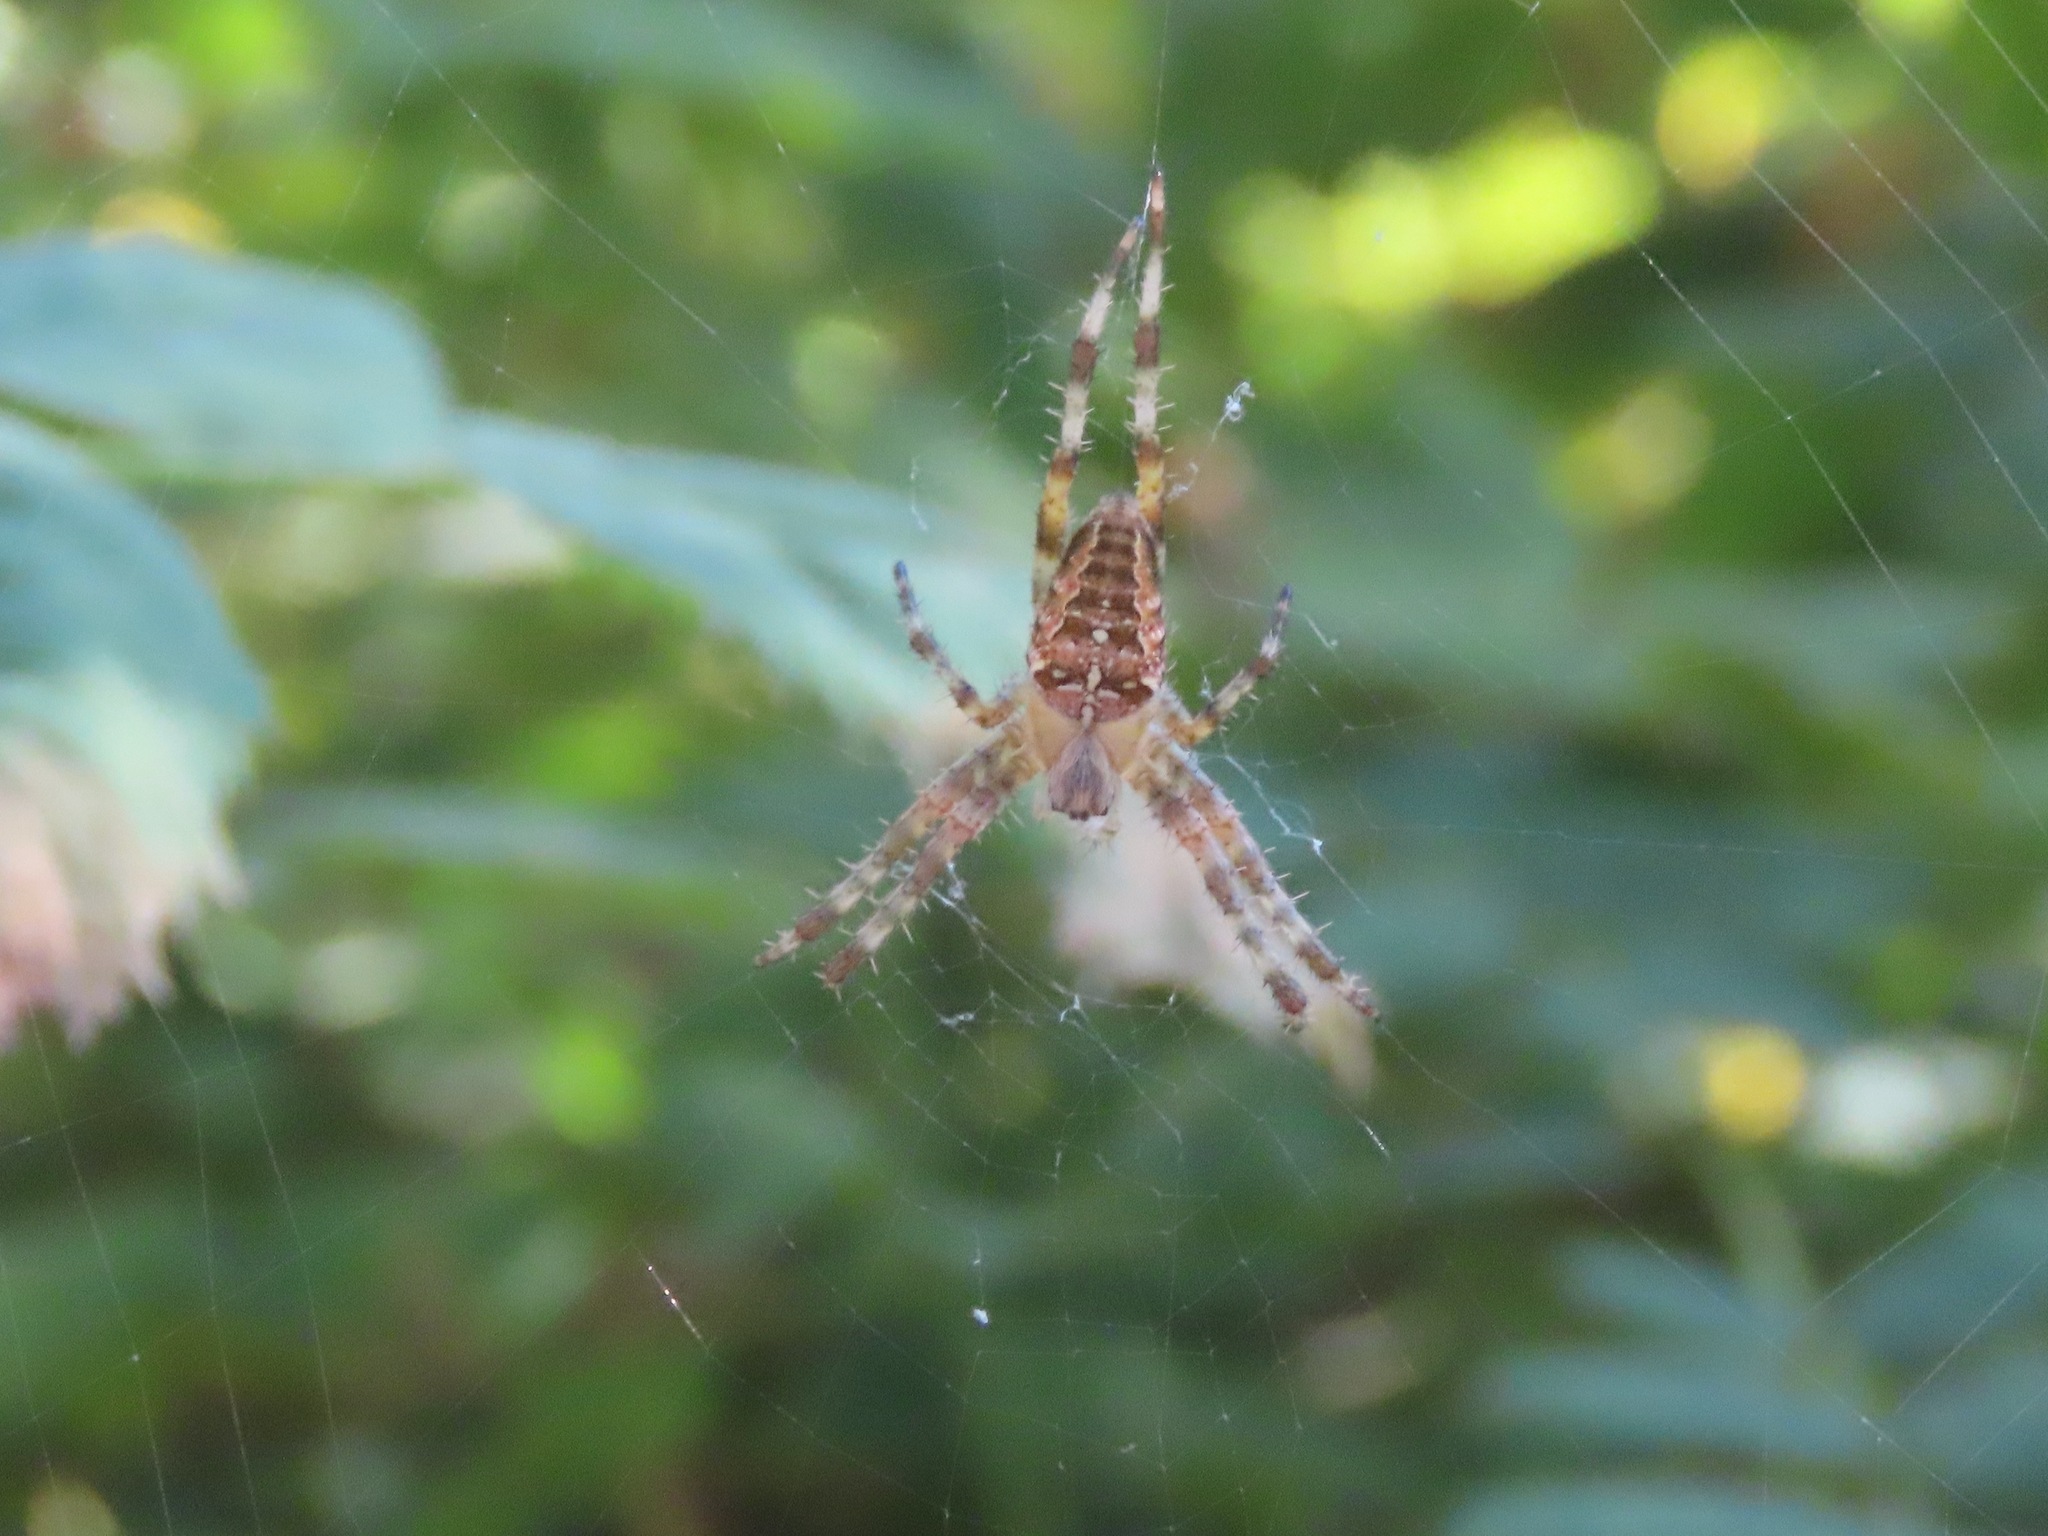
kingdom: Animalia
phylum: Arthropoda
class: Arachnida
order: Araneae
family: Araneidae
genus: Araneus
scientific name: Araneus diadematus
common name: Cross orbweaver
